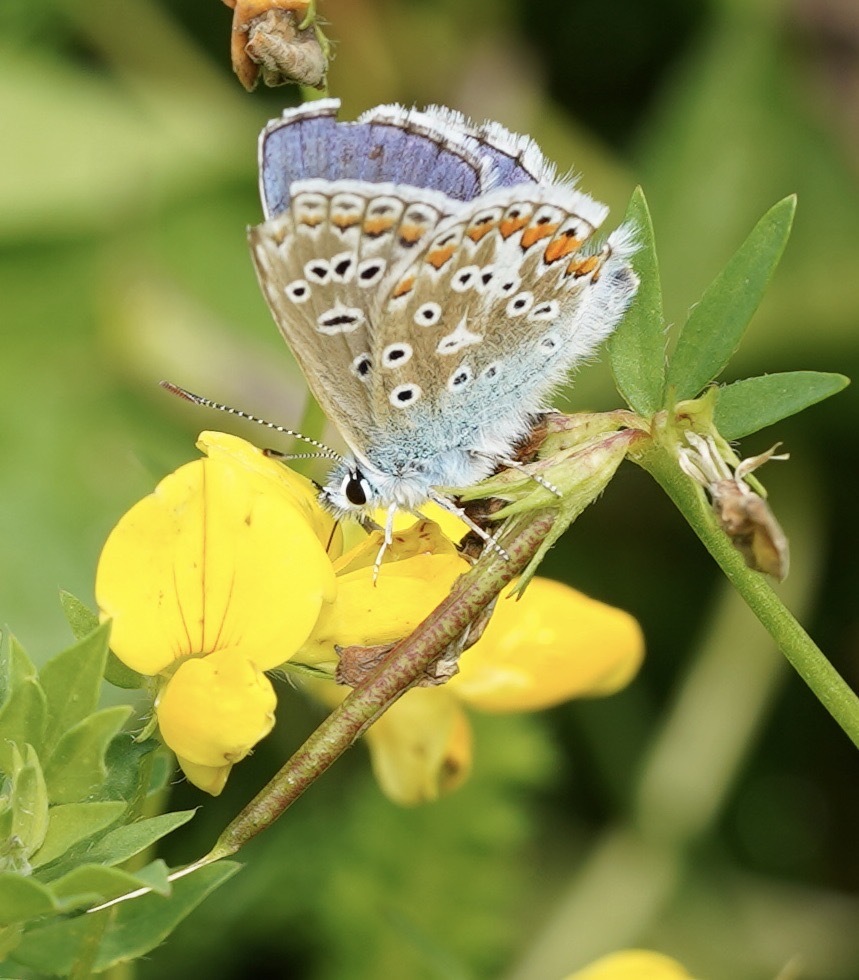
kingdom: Animalia
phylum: Arthropoda
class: Insecta
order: Lepidoptera
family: Lycaenidae
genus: Polyommatus
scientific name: Polyommatus icarus
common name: Common blue
